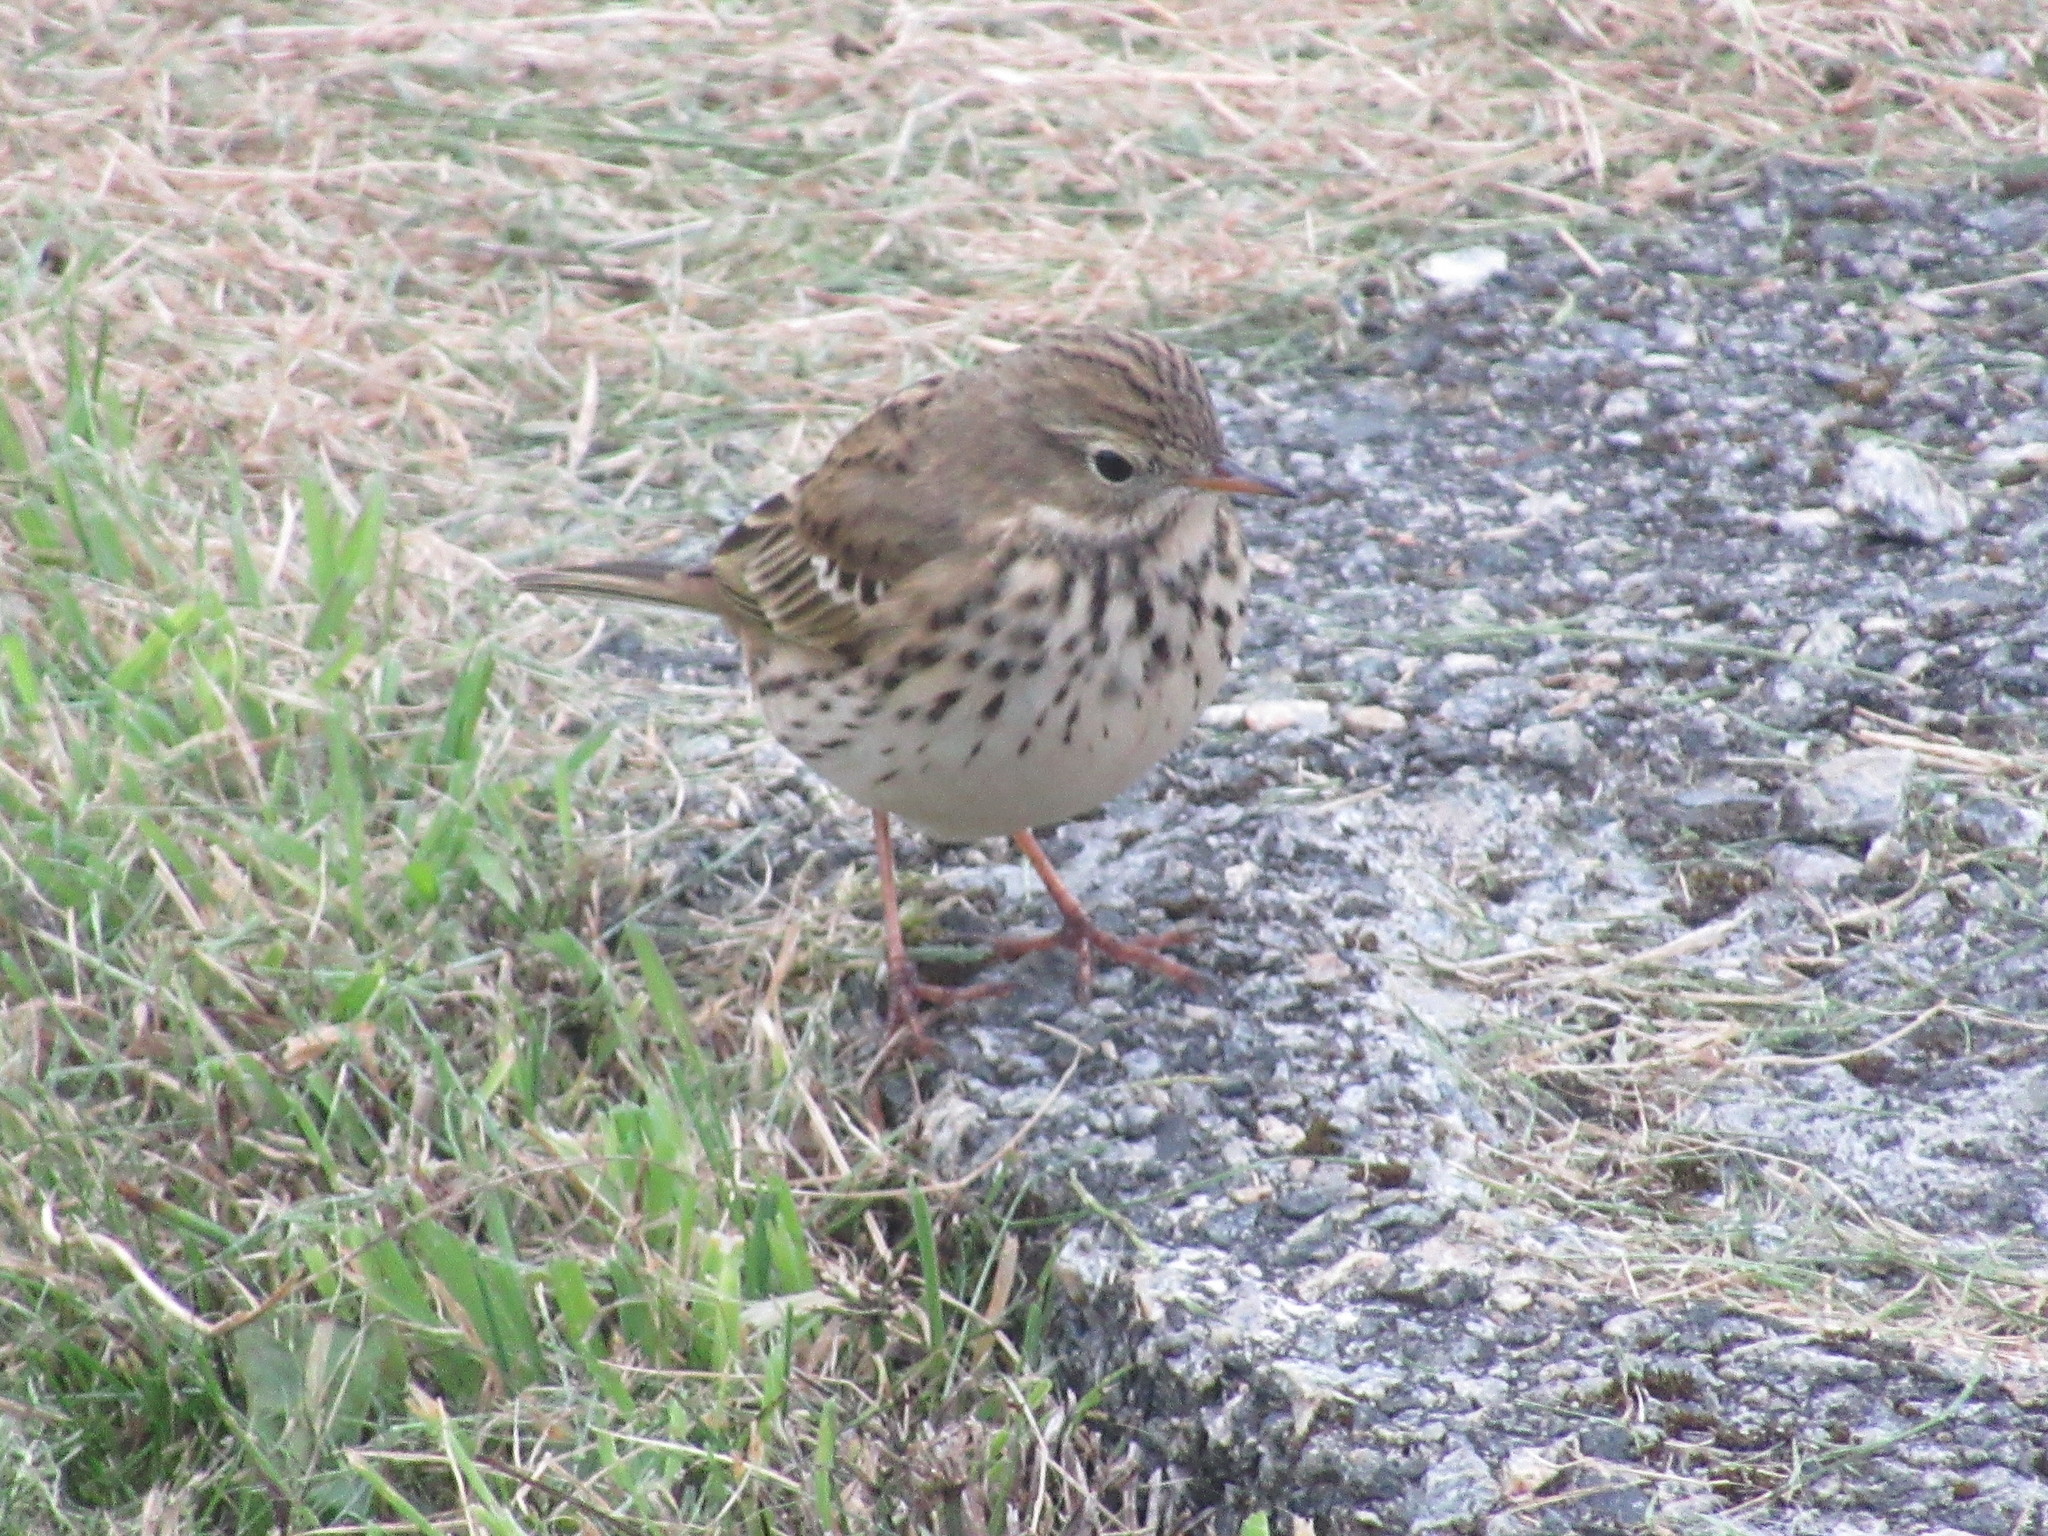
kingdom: Animalia
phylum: Chordata
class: Aves
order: Passeriformes
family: Motacillidae
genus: Anthus
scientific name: Anthus pratensis
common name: Meadow pipit
